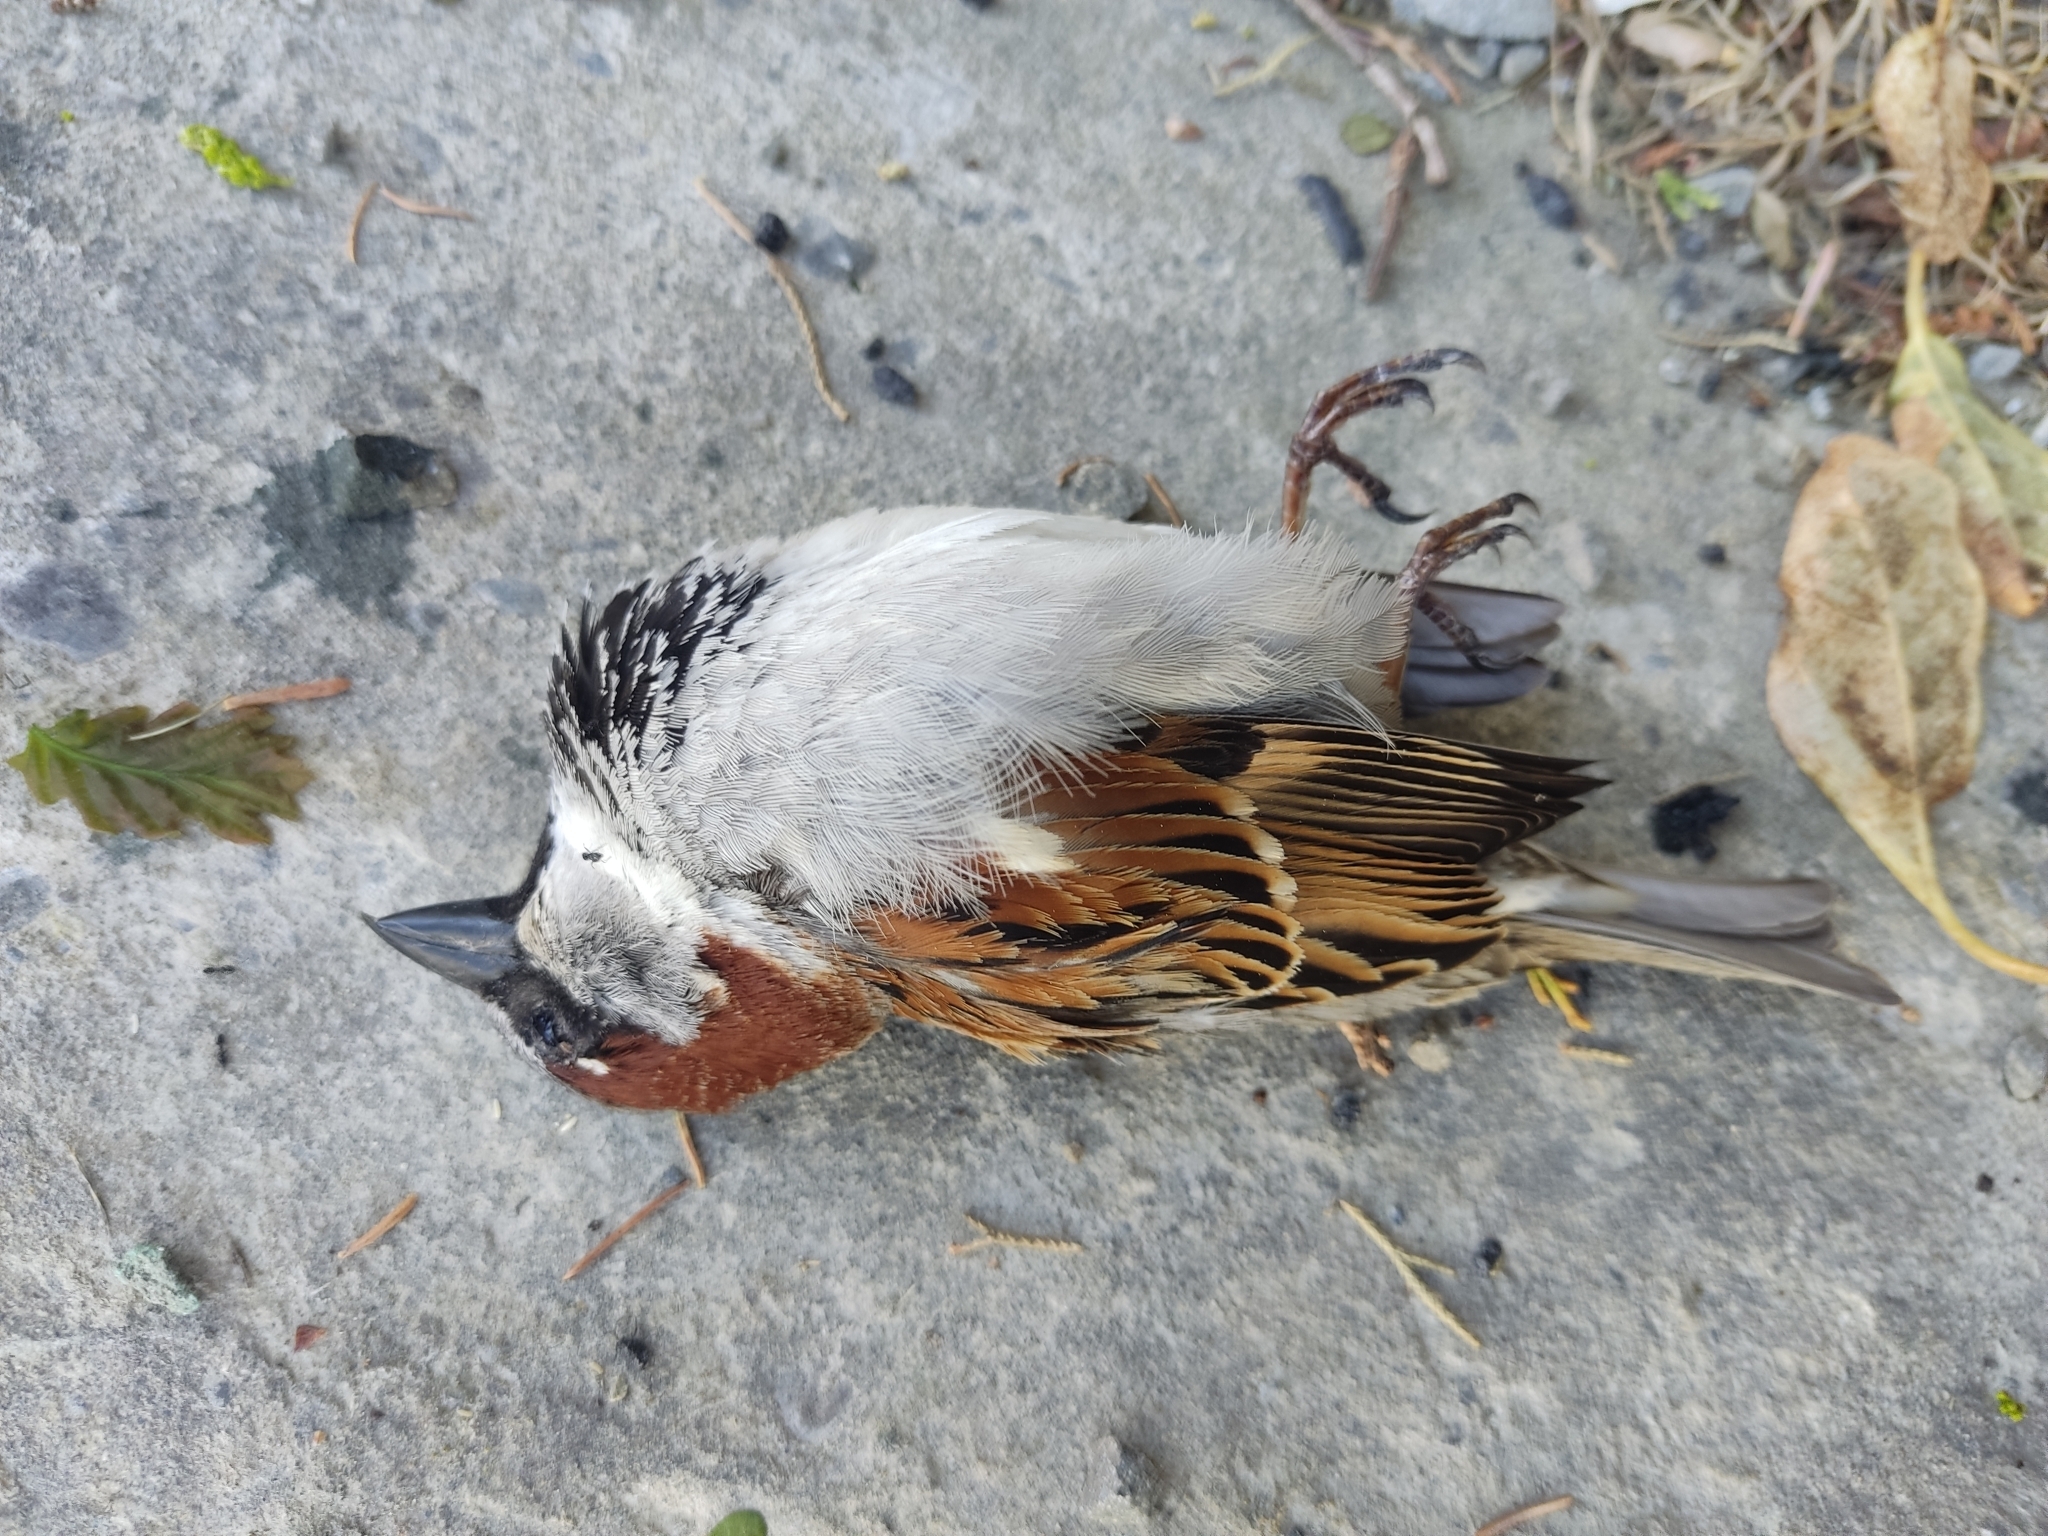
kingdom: Animalia
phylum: Chordata
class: Aves
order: Passeriformes
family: Passeridae
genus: Passer
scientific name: Passer domesticus
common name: House sparrow
